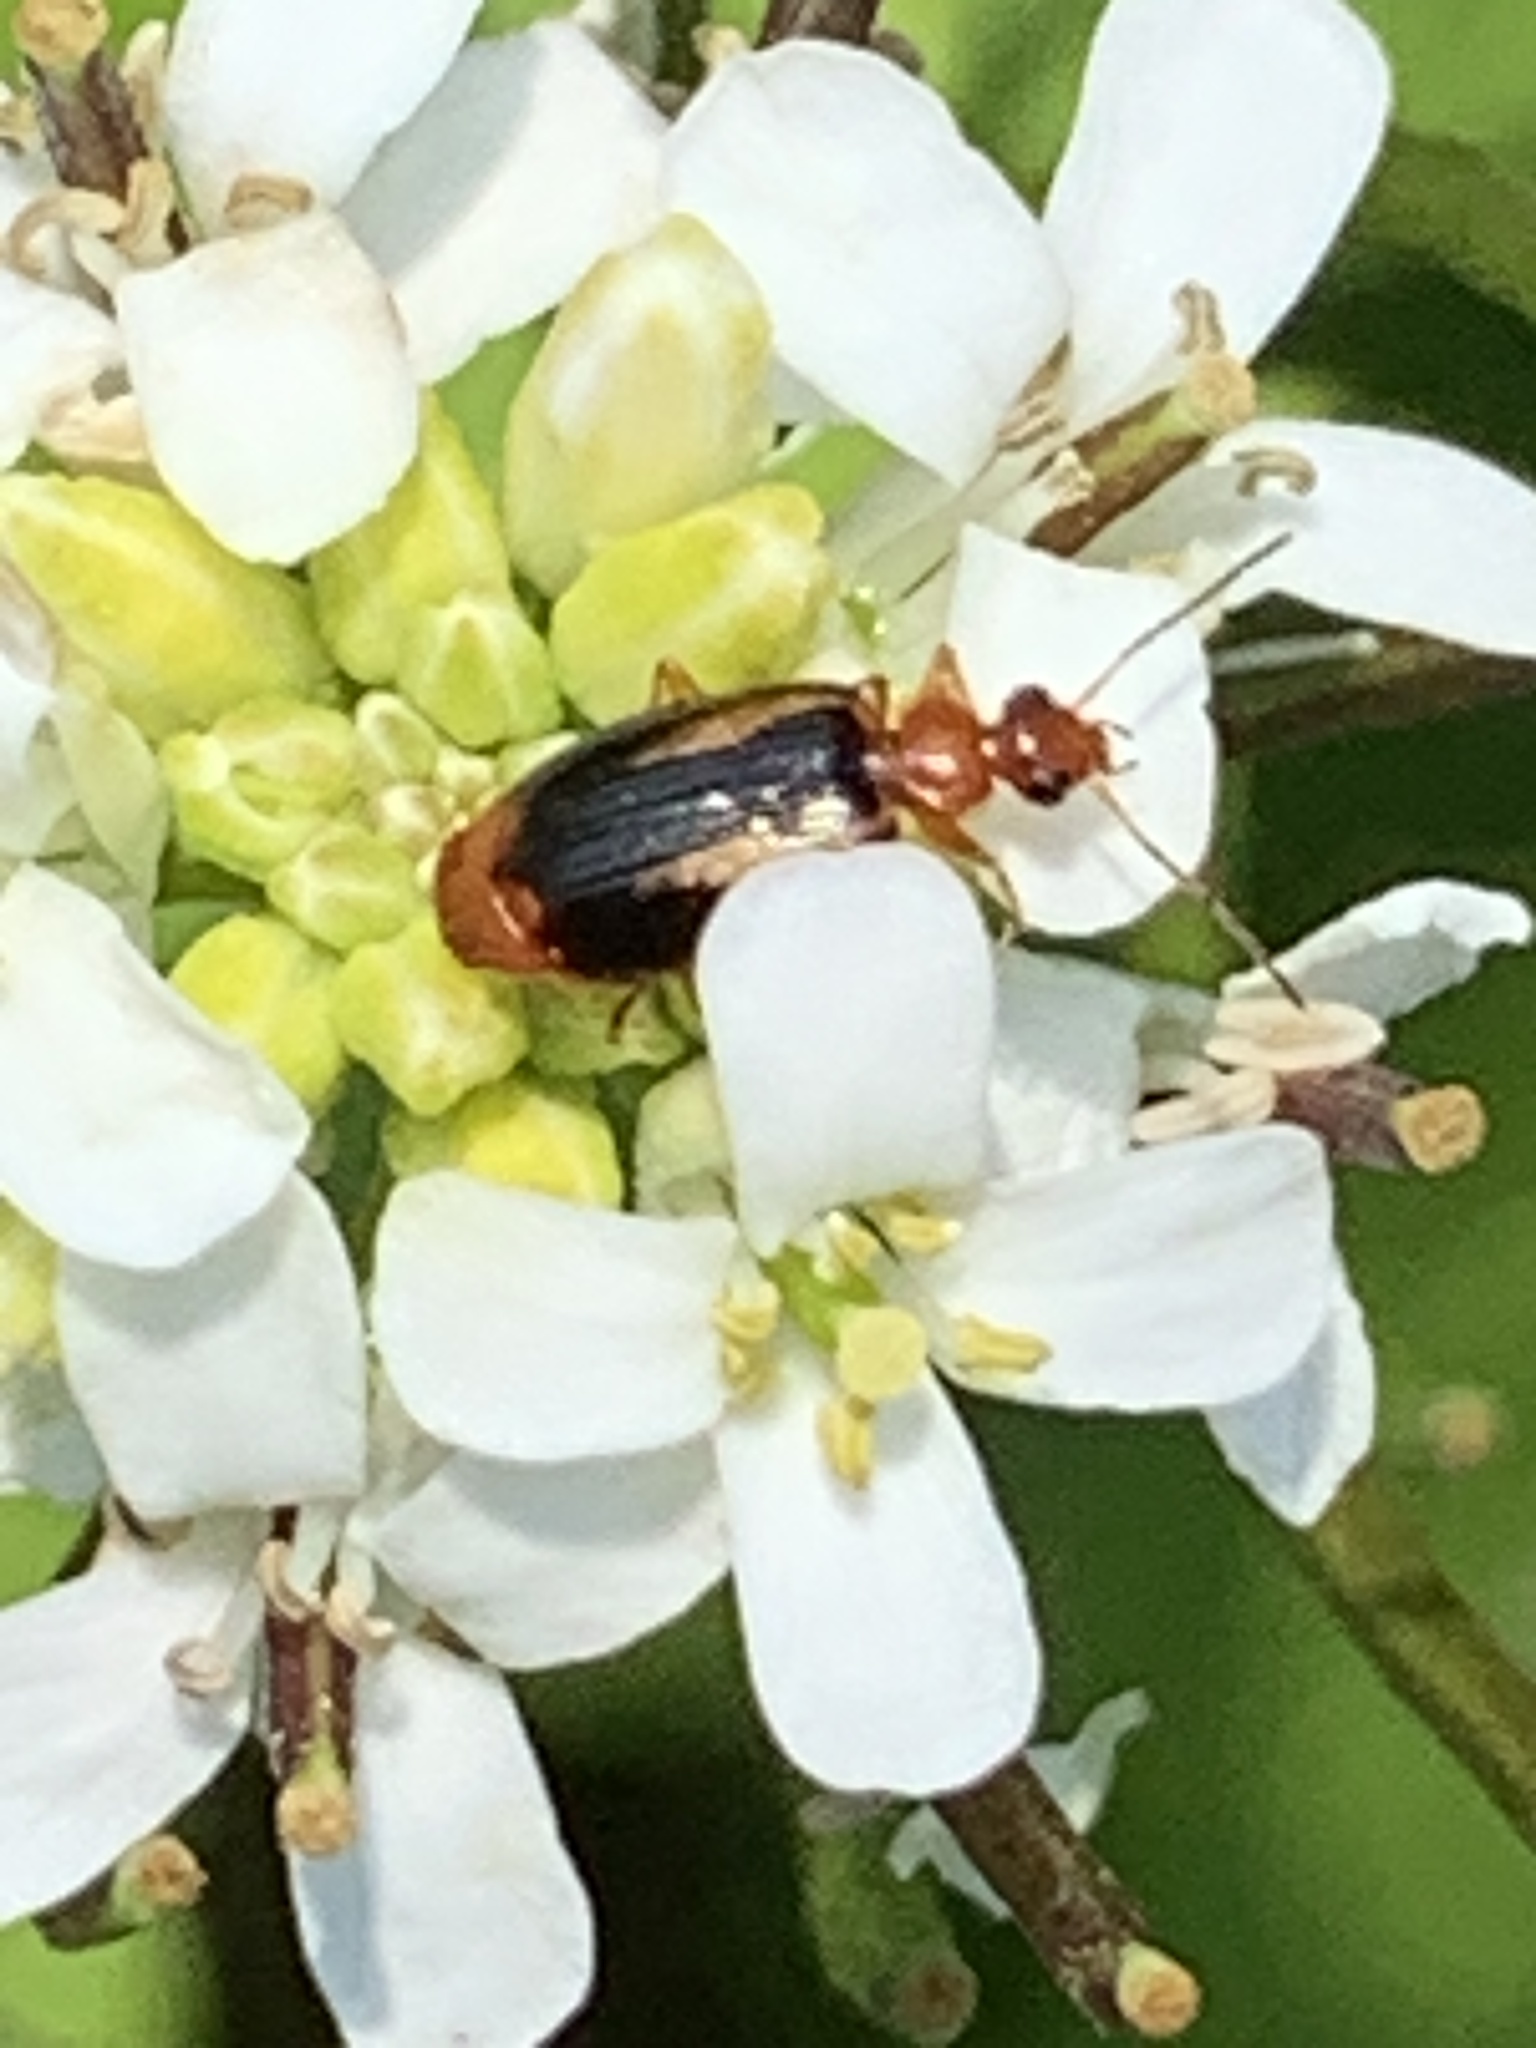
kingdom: Animalia
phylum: Arthropoda
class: Insecta
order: Coleoptera
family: Carabidae
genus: Lebia
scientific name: Lebia solea
